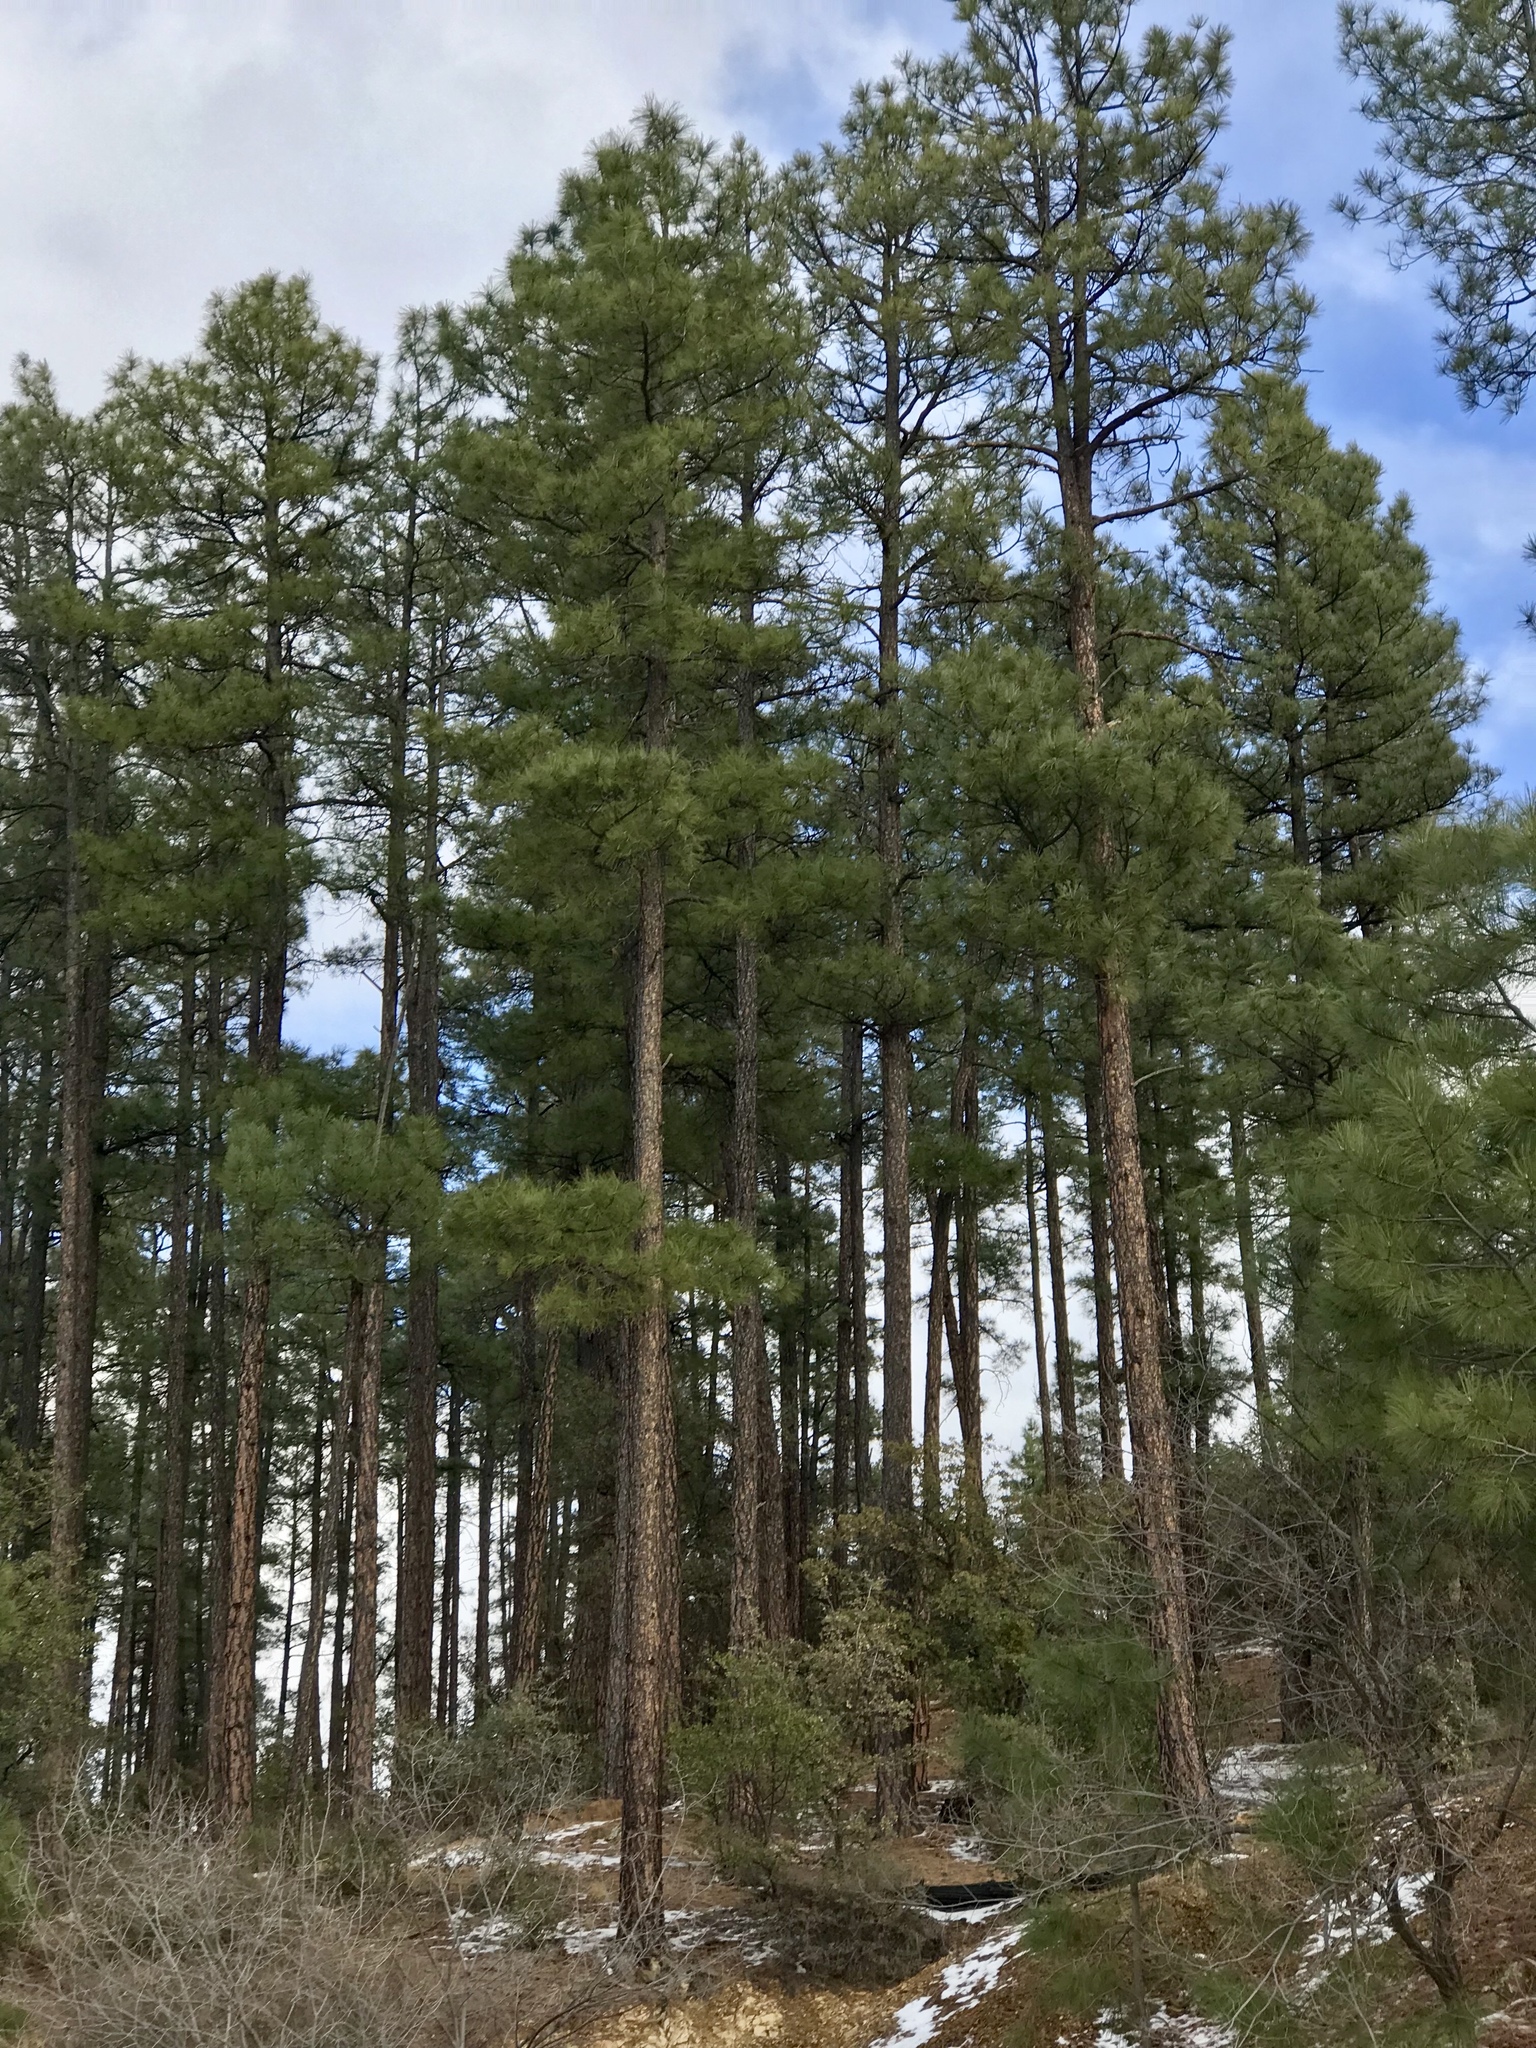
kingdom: Plantae
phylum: Tracheophyta
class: Pinopsida
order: Pinales
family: Pinaceae
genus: Pinus
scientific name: Pinus ponderosa
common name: Western yellow-pine
